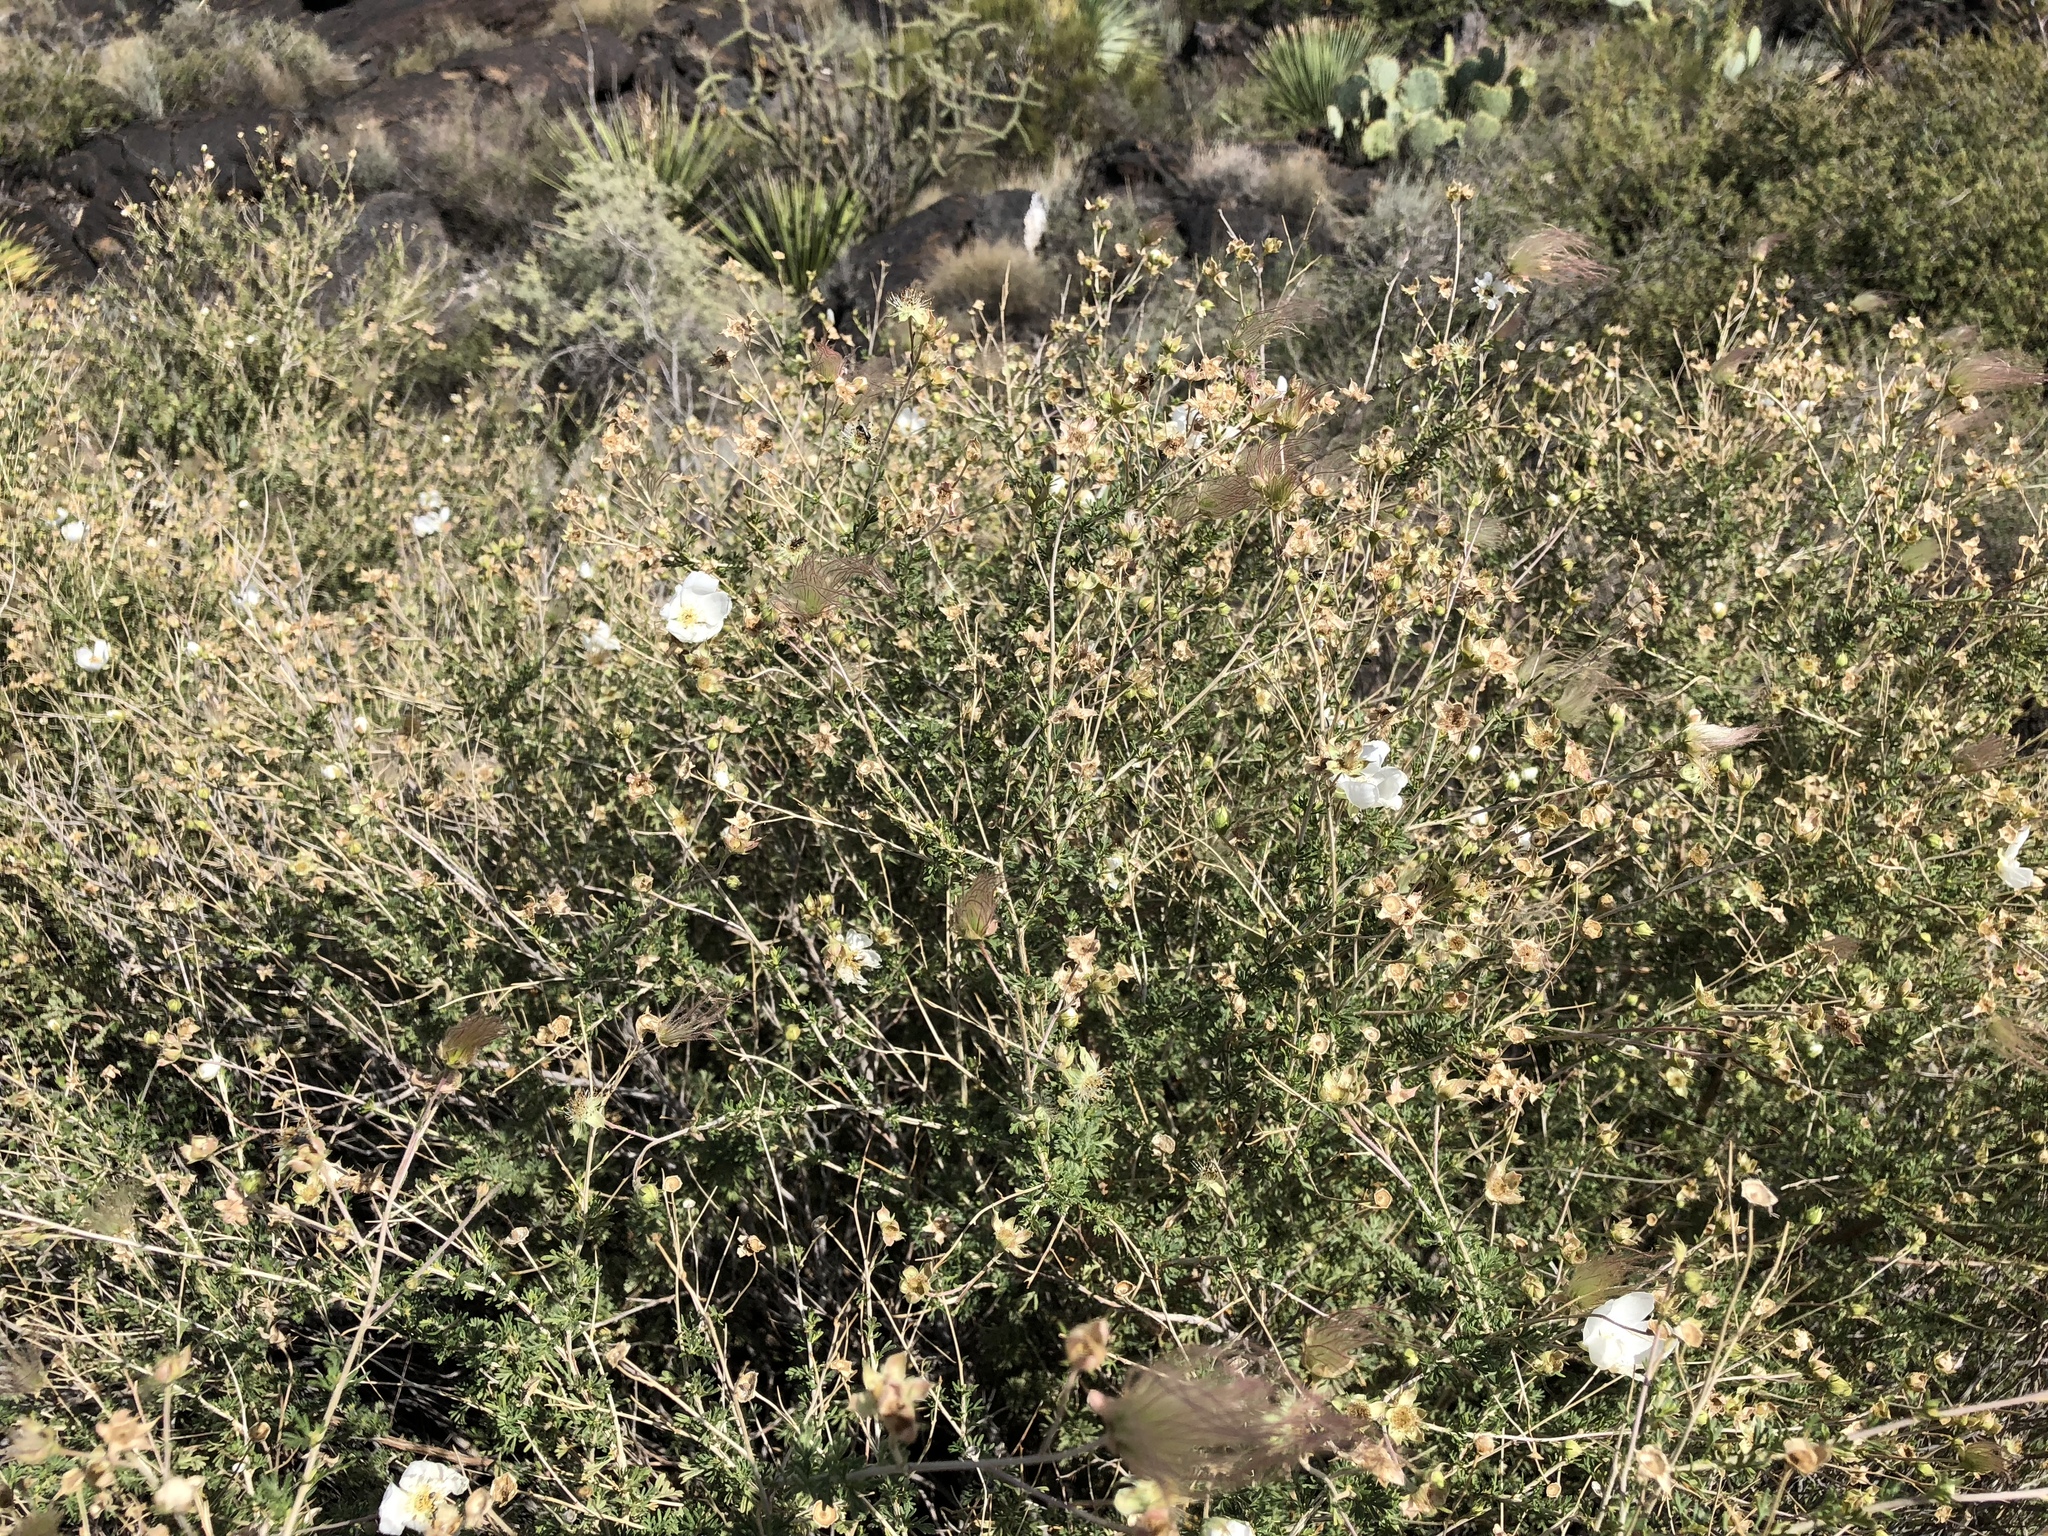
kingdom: Plantae
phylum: Tracheophyta
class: Magnoliopsida
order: Rosales
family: Rosaceae
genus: Fallugia
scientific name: Fallugia paradoxa
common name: Apache-plume
